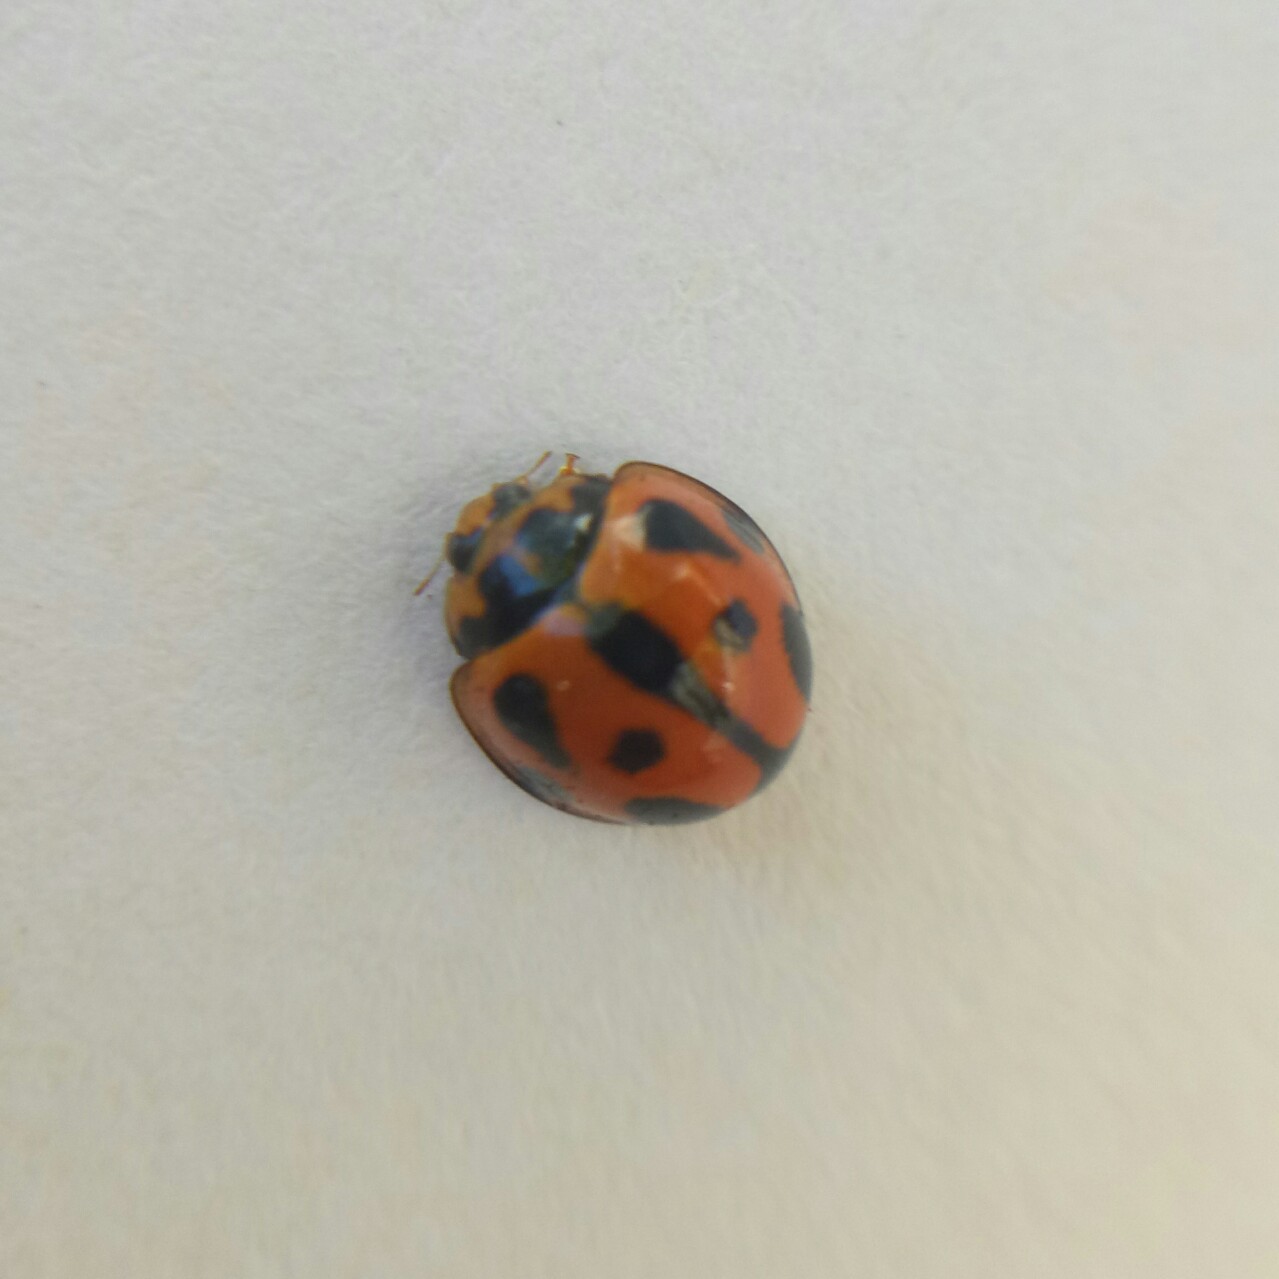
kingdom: Animalia
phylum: Arthropoda
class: Insecta
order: Coleoptera
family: Coccinellidae
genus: Coelophora
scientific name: Coelophora inaequalis
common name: Common australian lady beetle
